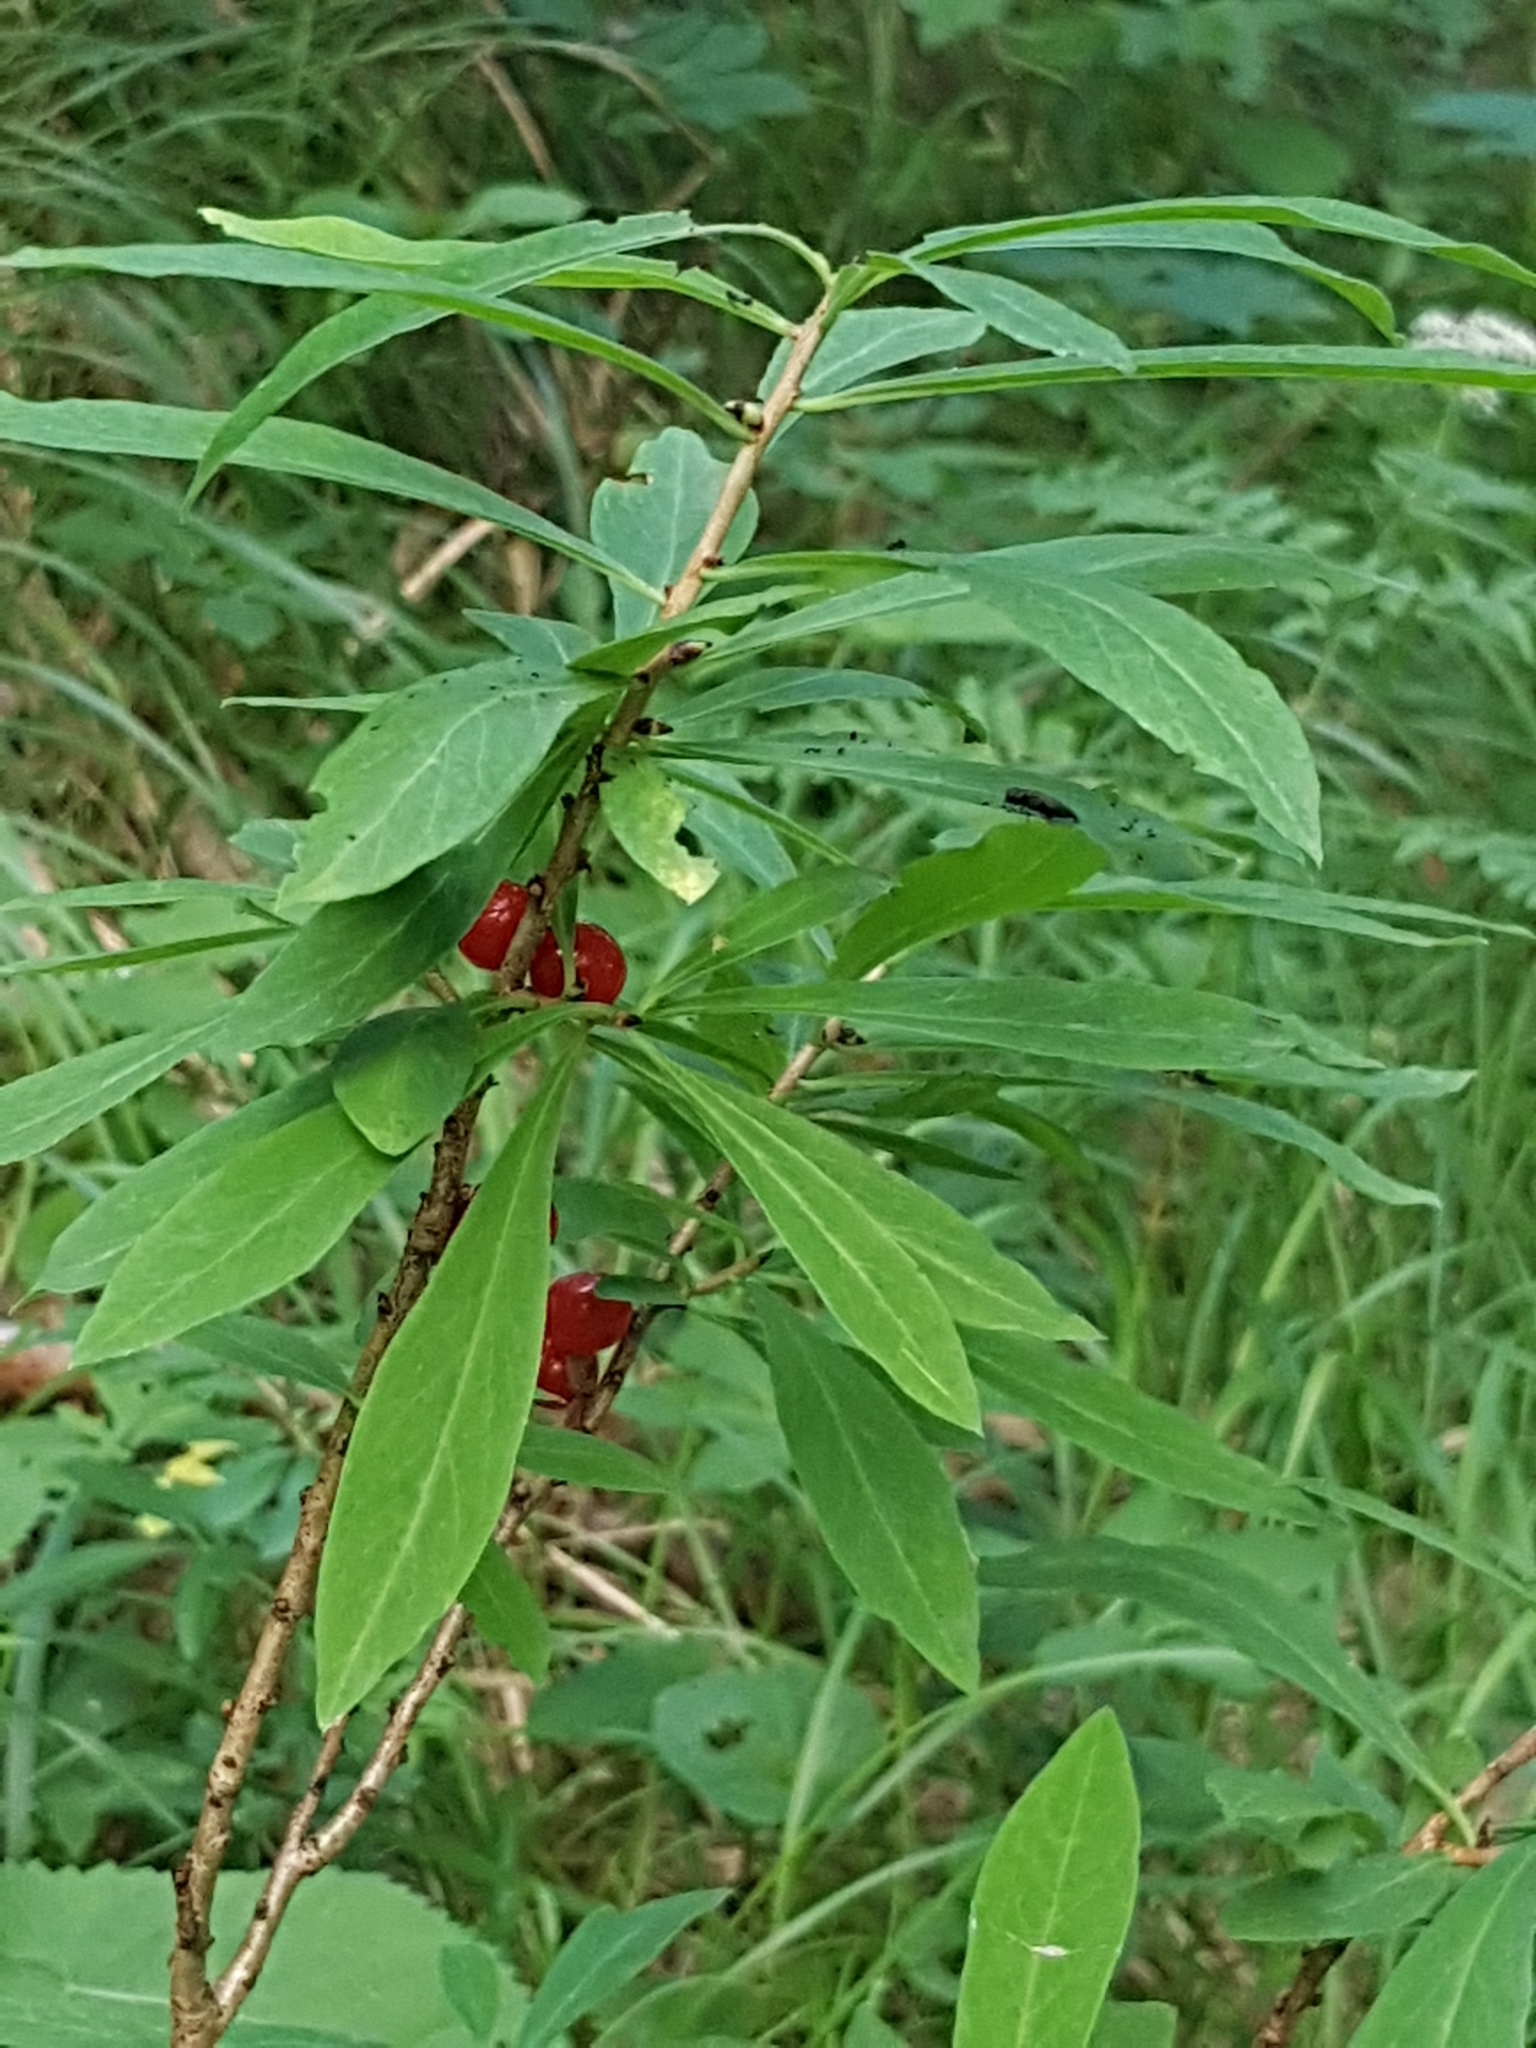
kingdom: Plantae
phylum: Tracheophyta
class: Magnoliopsida
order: Malvales
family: Thymelaeaceae
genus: Daphne
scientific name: Daphne mezereum
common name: Mezereon
